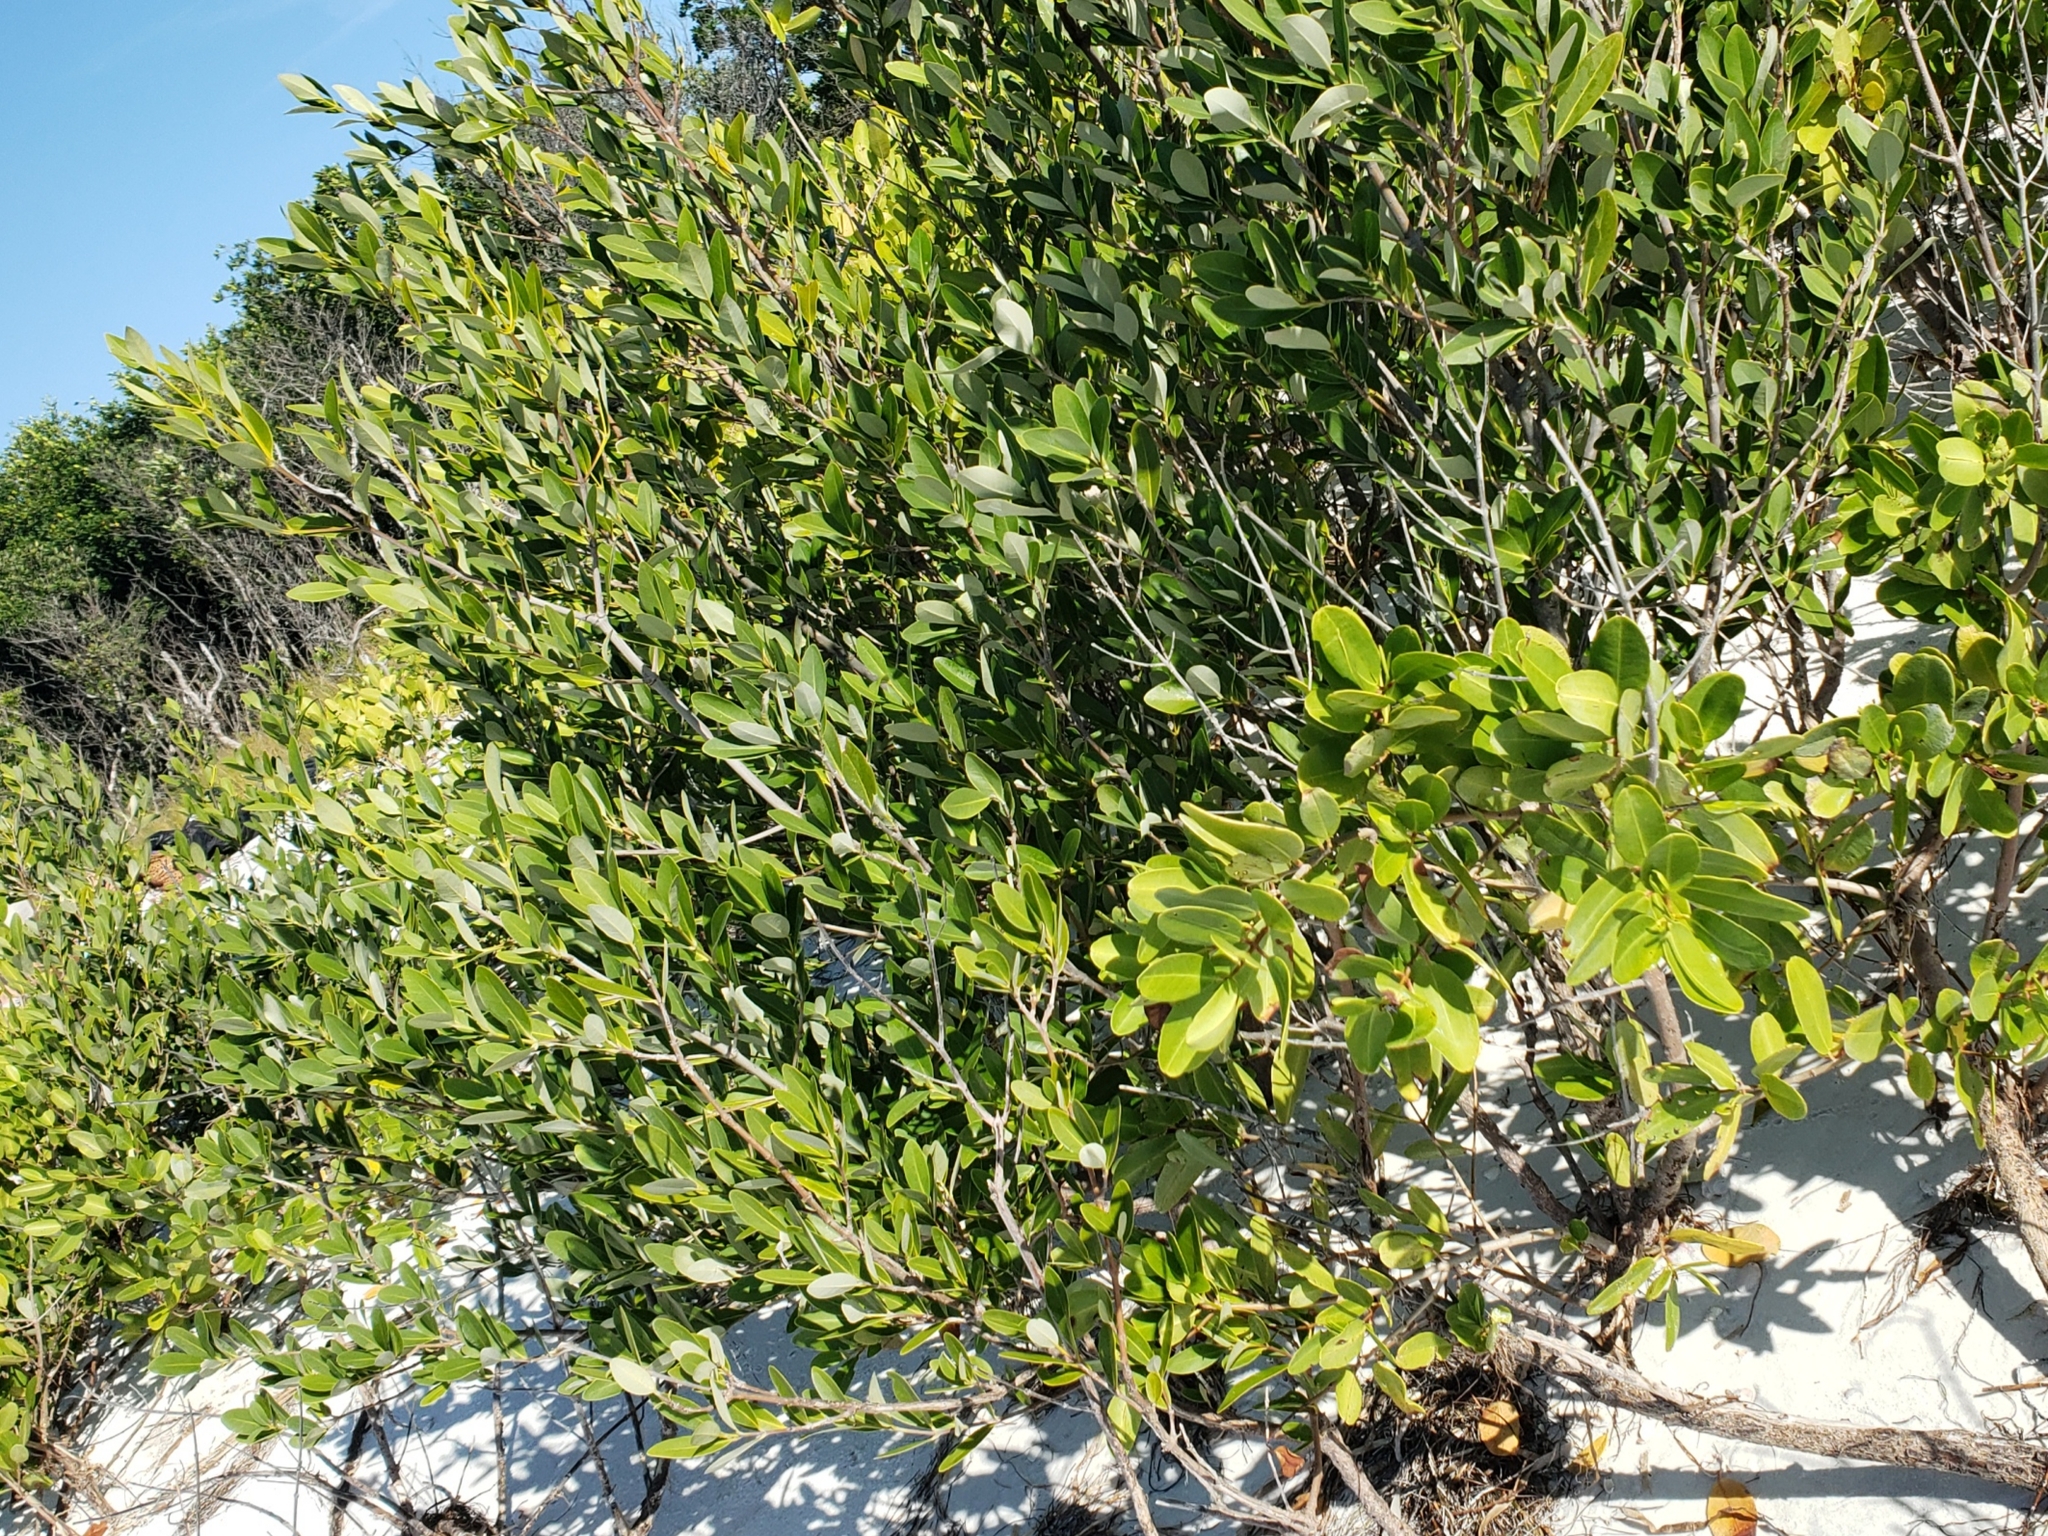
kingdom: Plantae
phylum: Tracheophyta
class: Magnoliopsida
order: Myrtales
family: Combretaceae
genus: Laguncularia
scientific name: Laguncularia racemosa
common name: White mangrove
